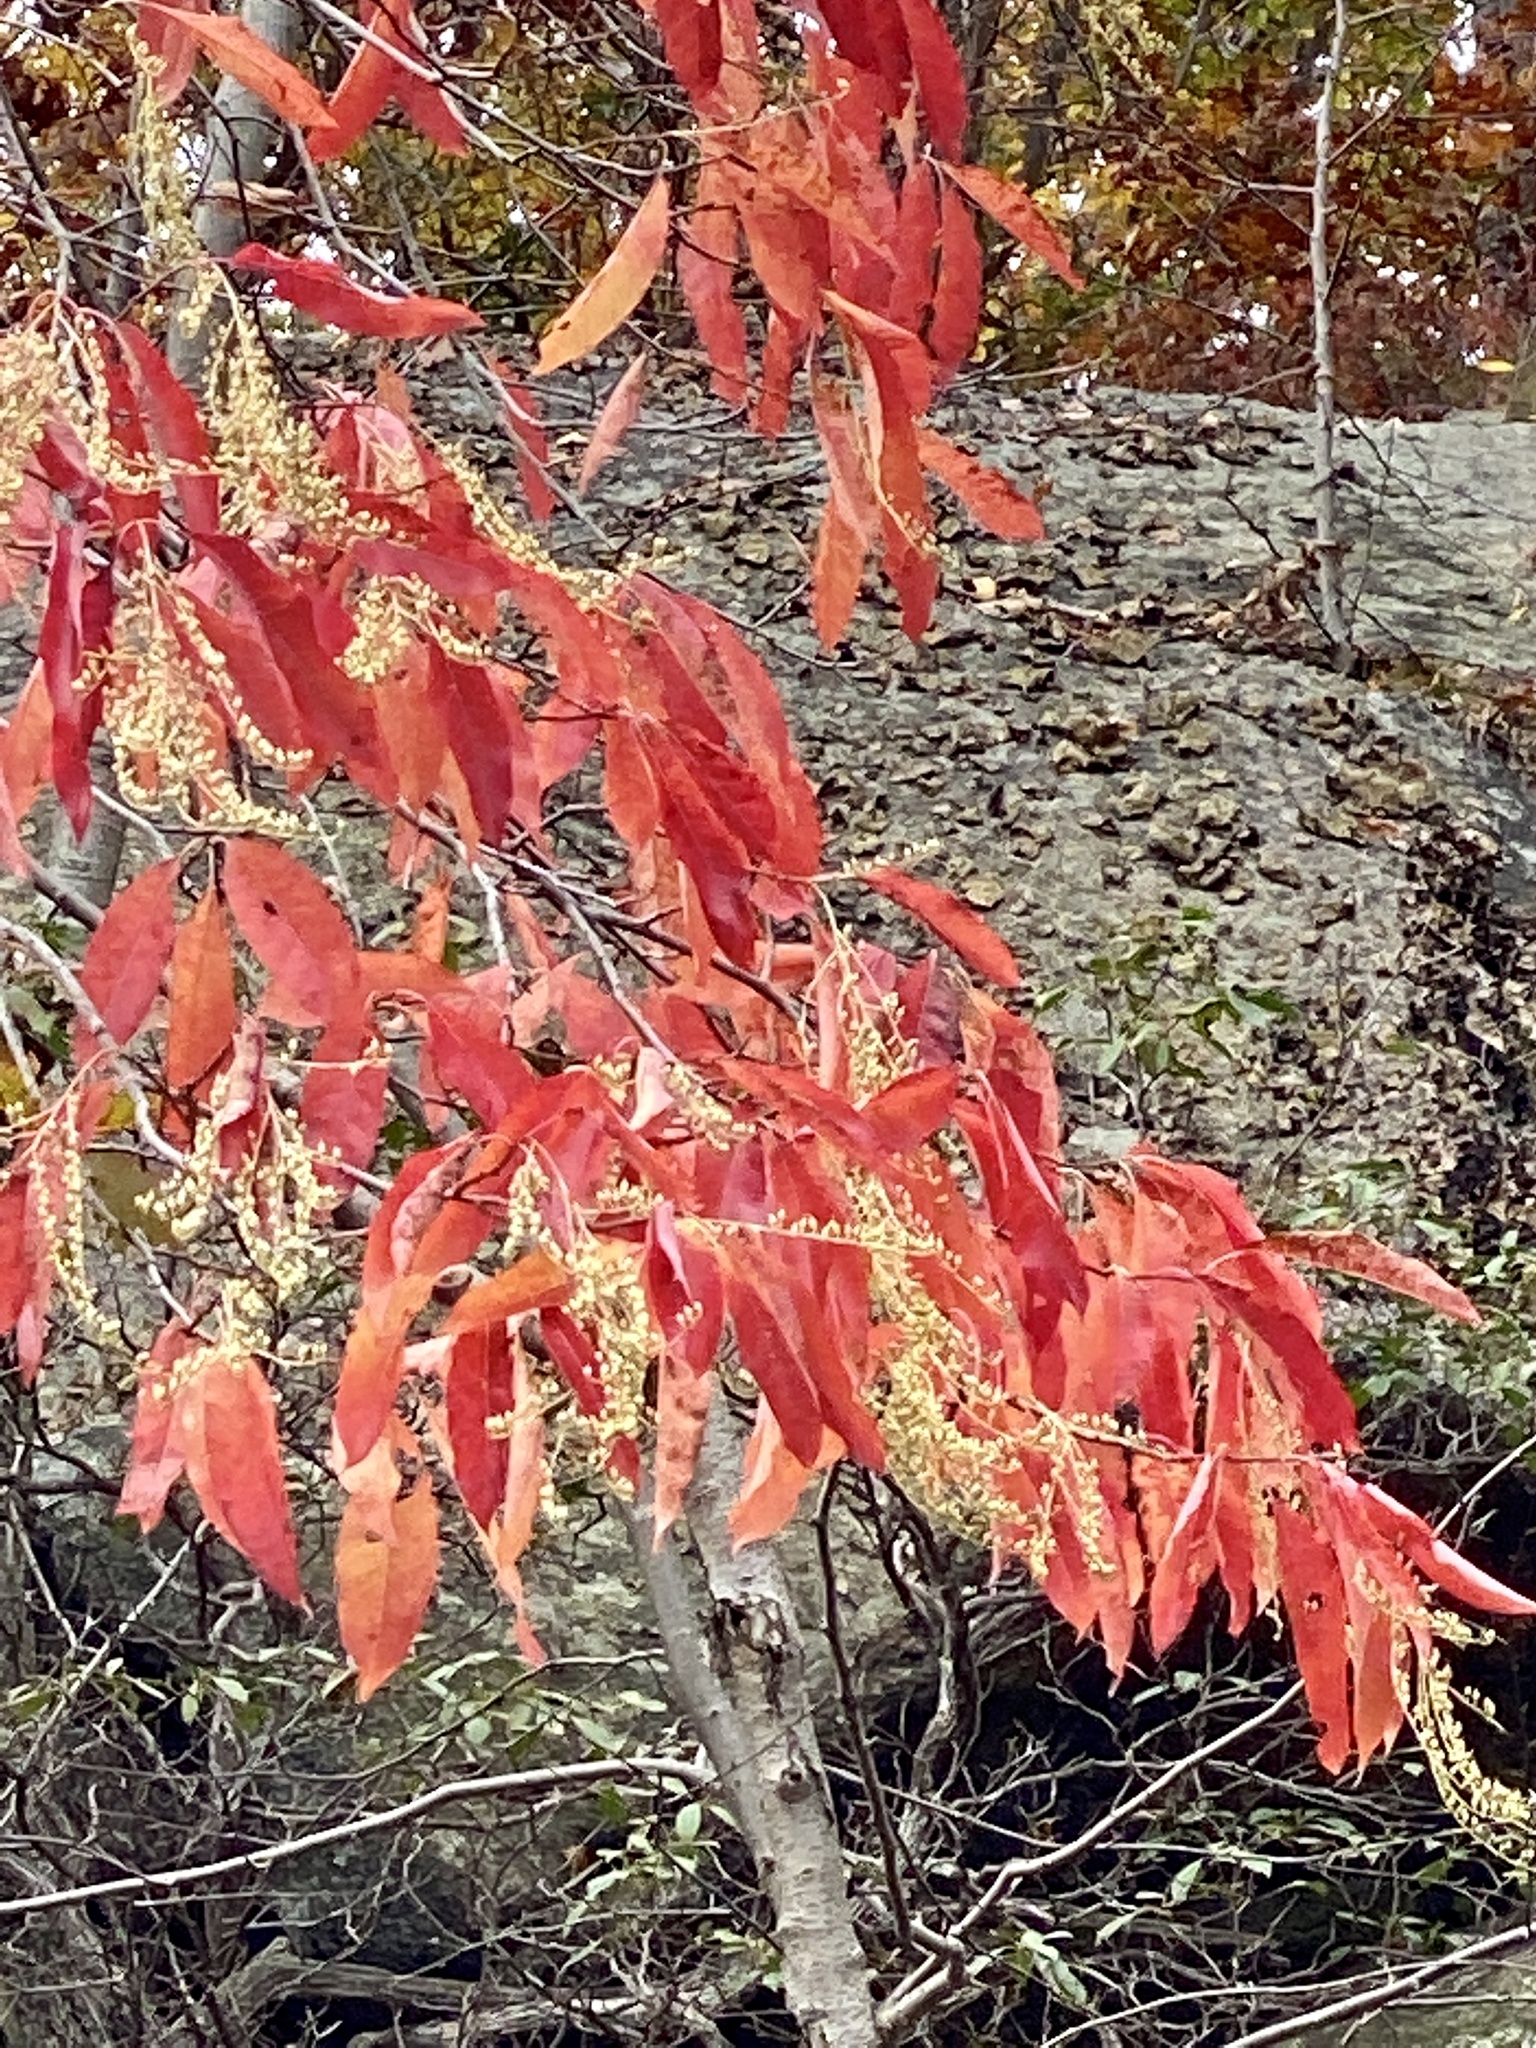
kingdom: Plantae
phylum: Tracheophyta
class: Magnoliopsida
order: Ericales
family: Ericaceae
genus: Oxydendrum
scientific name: Oxydendrum arboreum
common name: Sourwood
